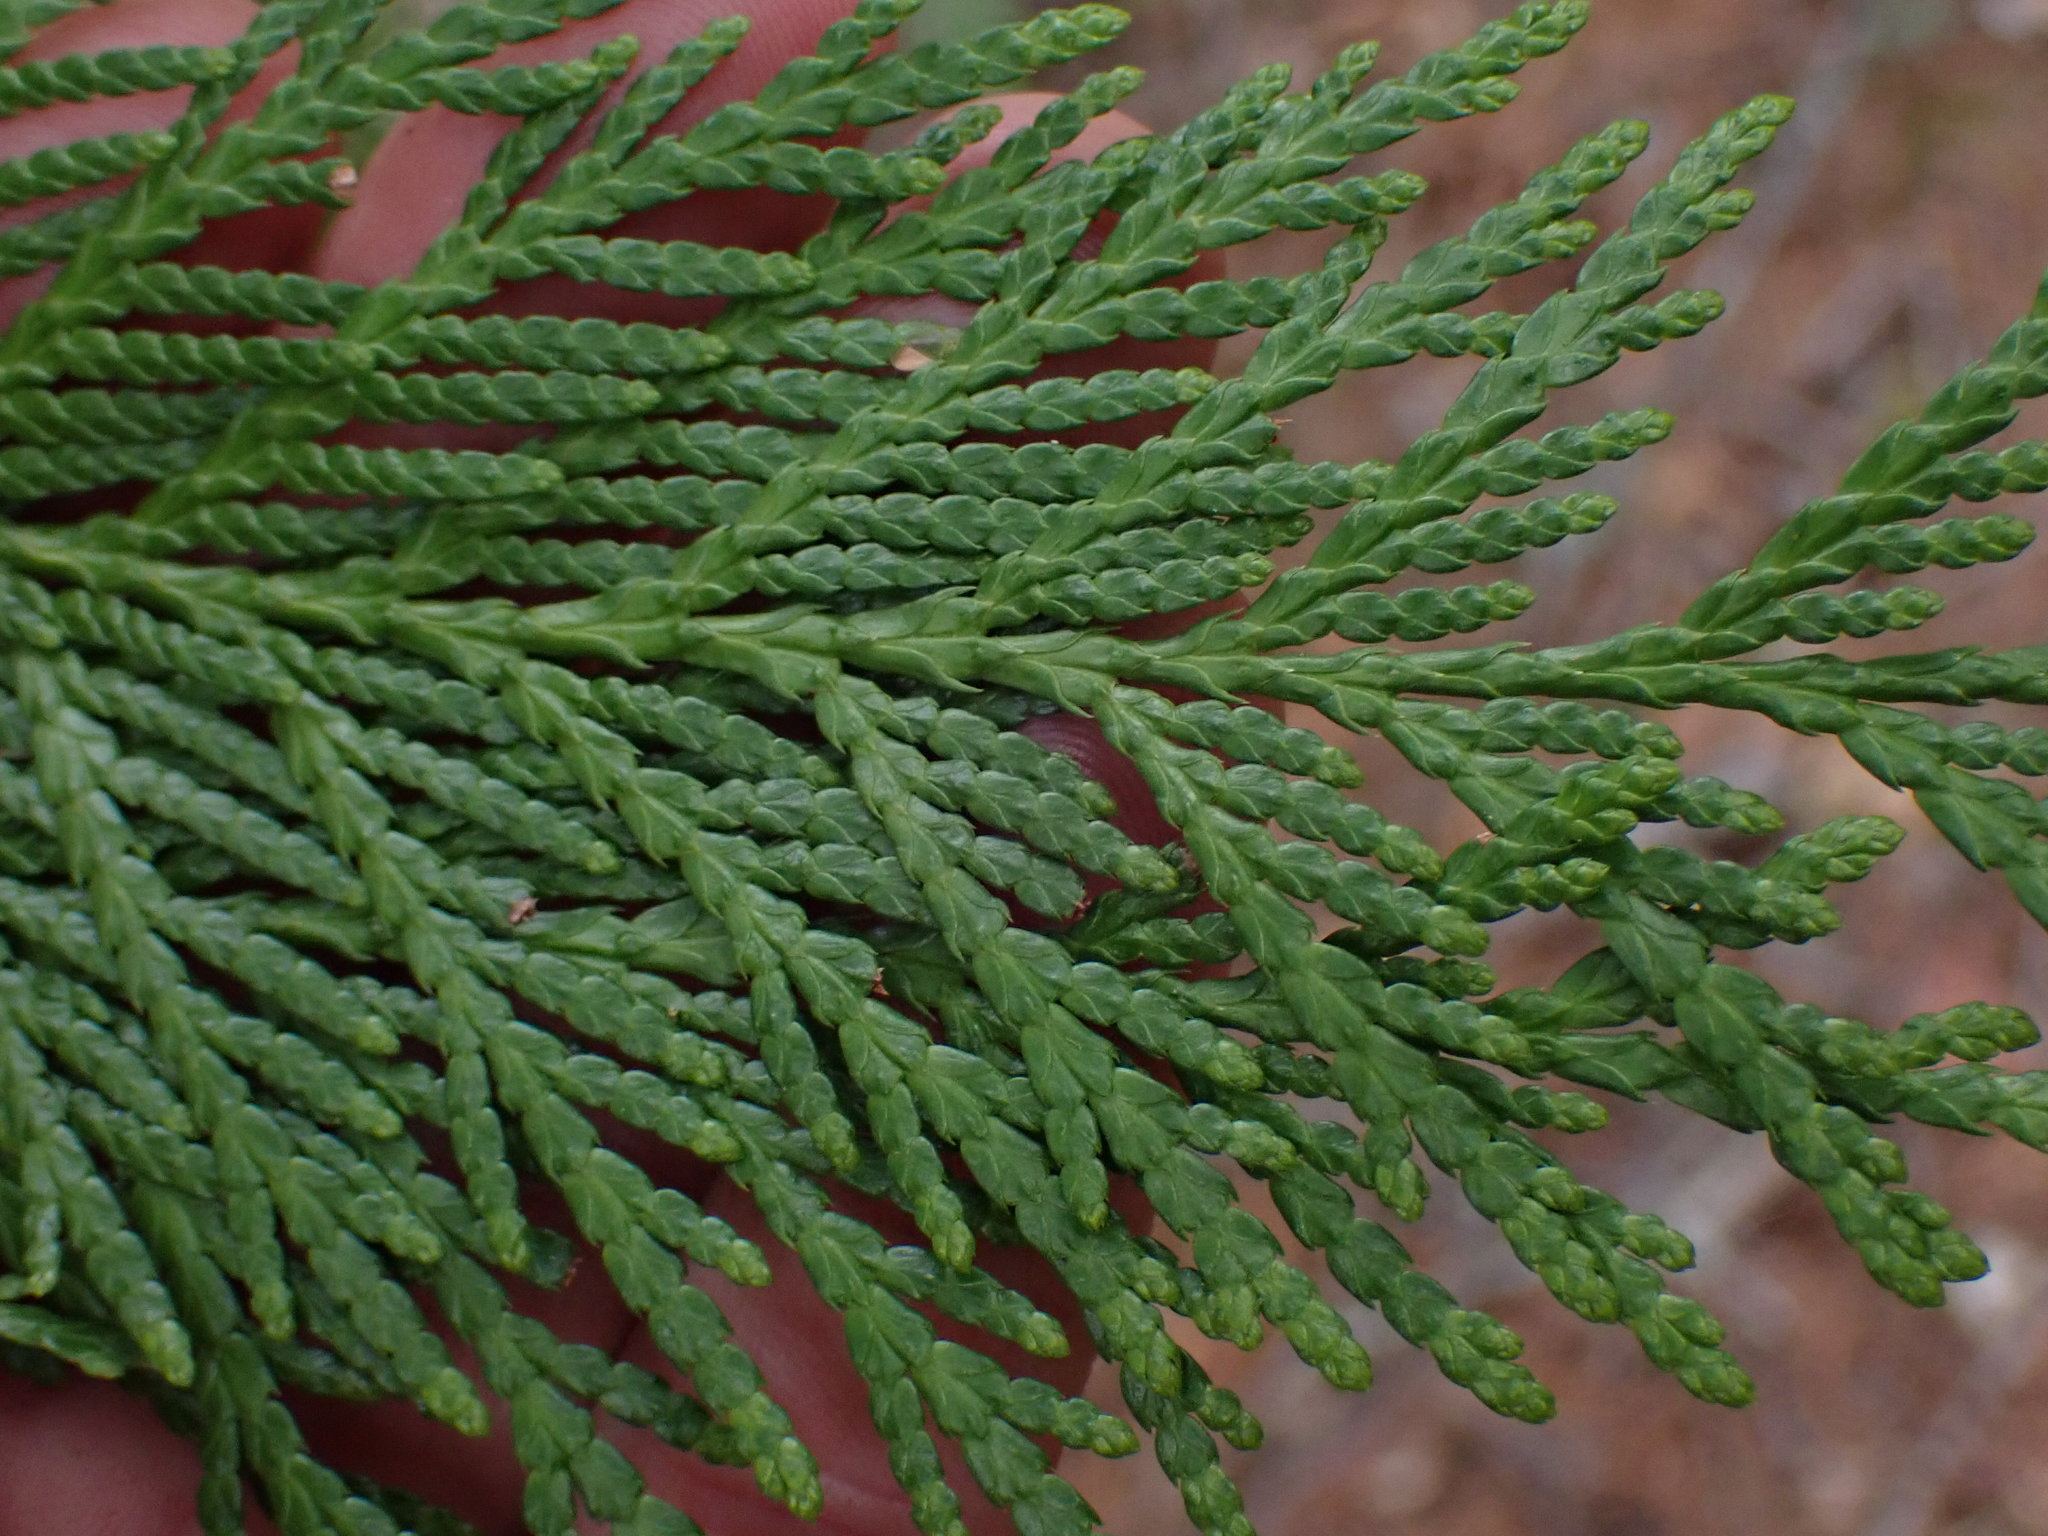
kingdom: Plantae
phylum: Tracheophyta
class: Pinopsida
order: Pinales
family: Cupressaceae
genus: Thuja
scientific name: Thuja plicata
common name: Western red-cedar
